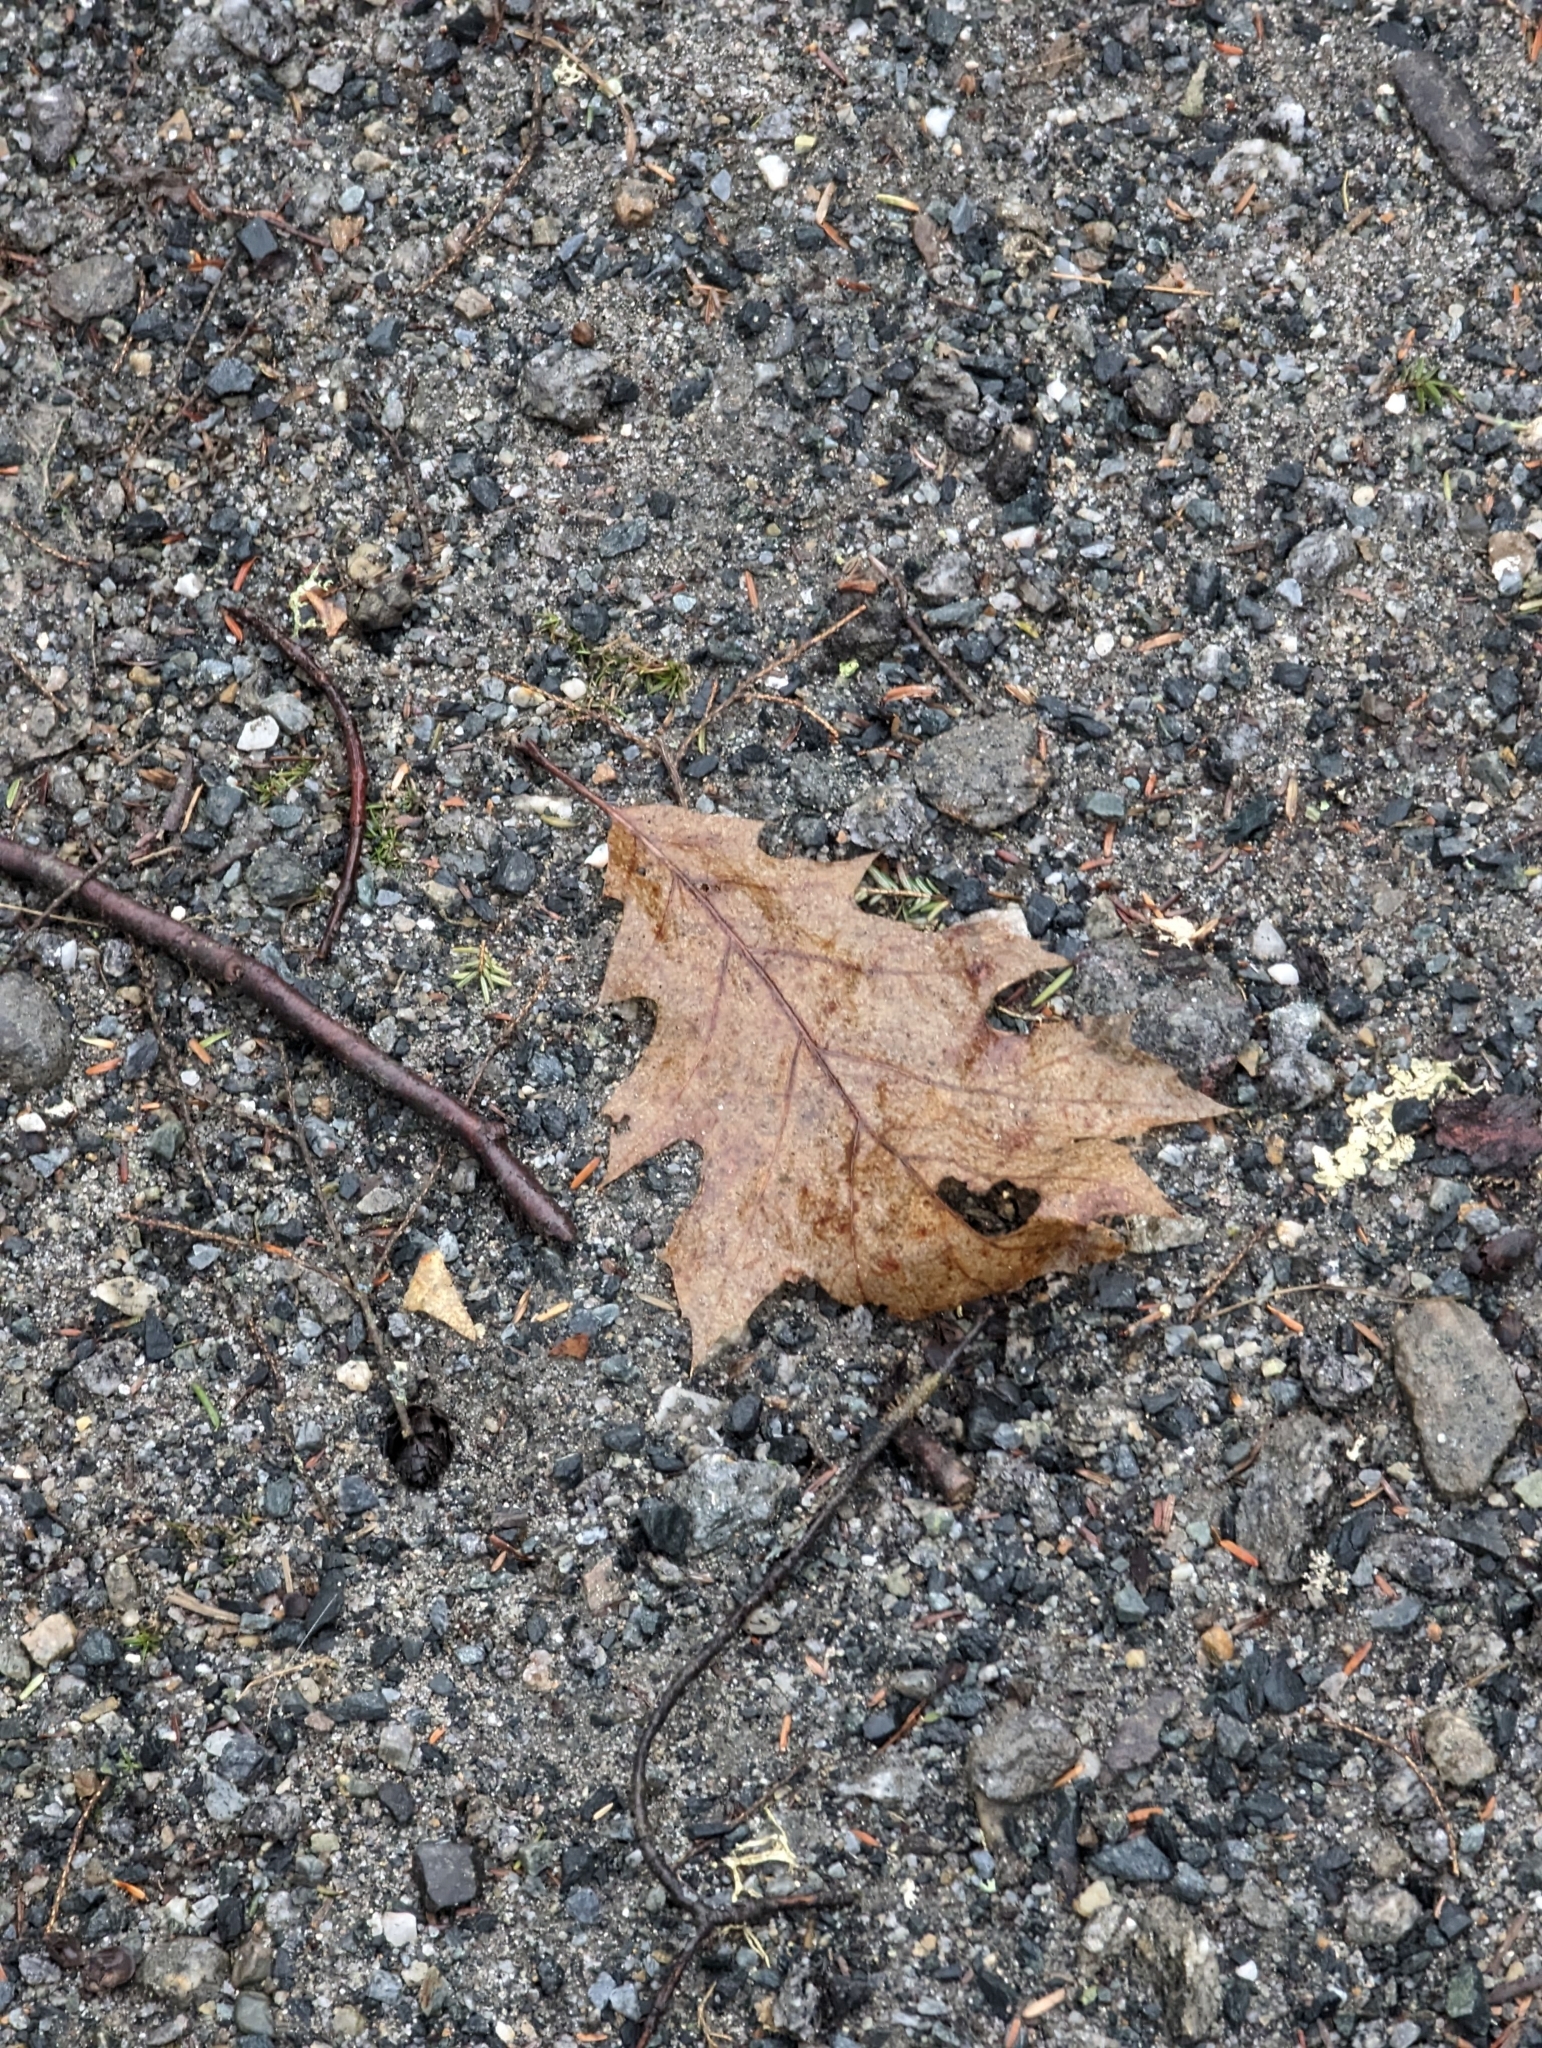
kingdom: Plantae
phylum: Tracheophyta
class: Magnoliopsida
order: Fagales
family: Fagaceae
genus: Quercus
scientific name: Quercus rubra
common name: Red oak
